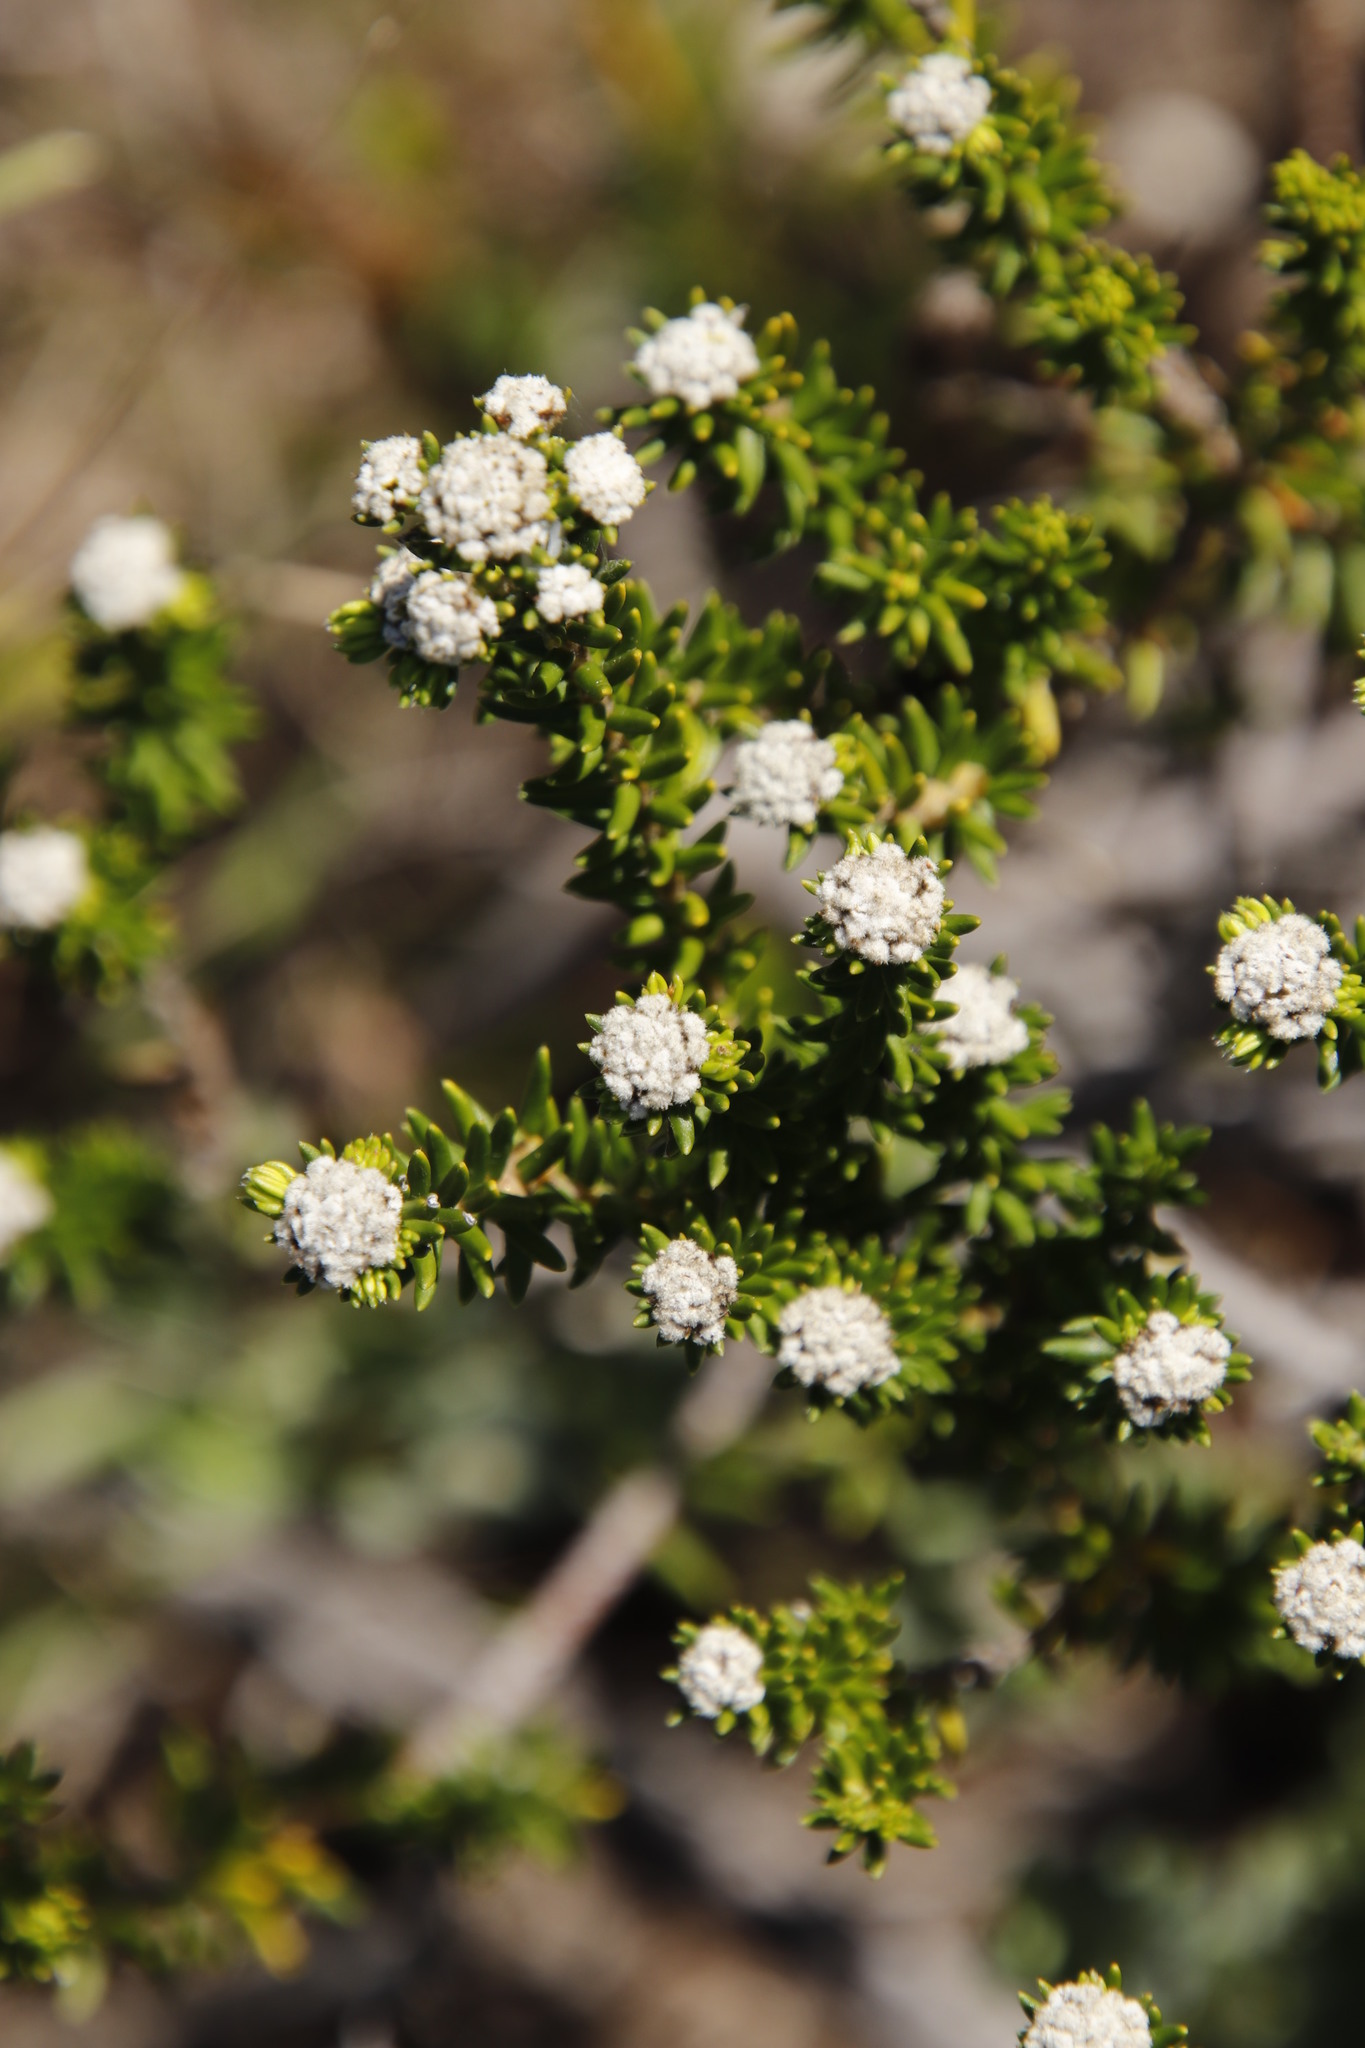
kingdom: Plantae
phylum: Tracheophyta
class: Magnoliopsida
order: Rosales
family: Rhamnaceae
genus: Phylica
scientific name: Phylica ericoides
